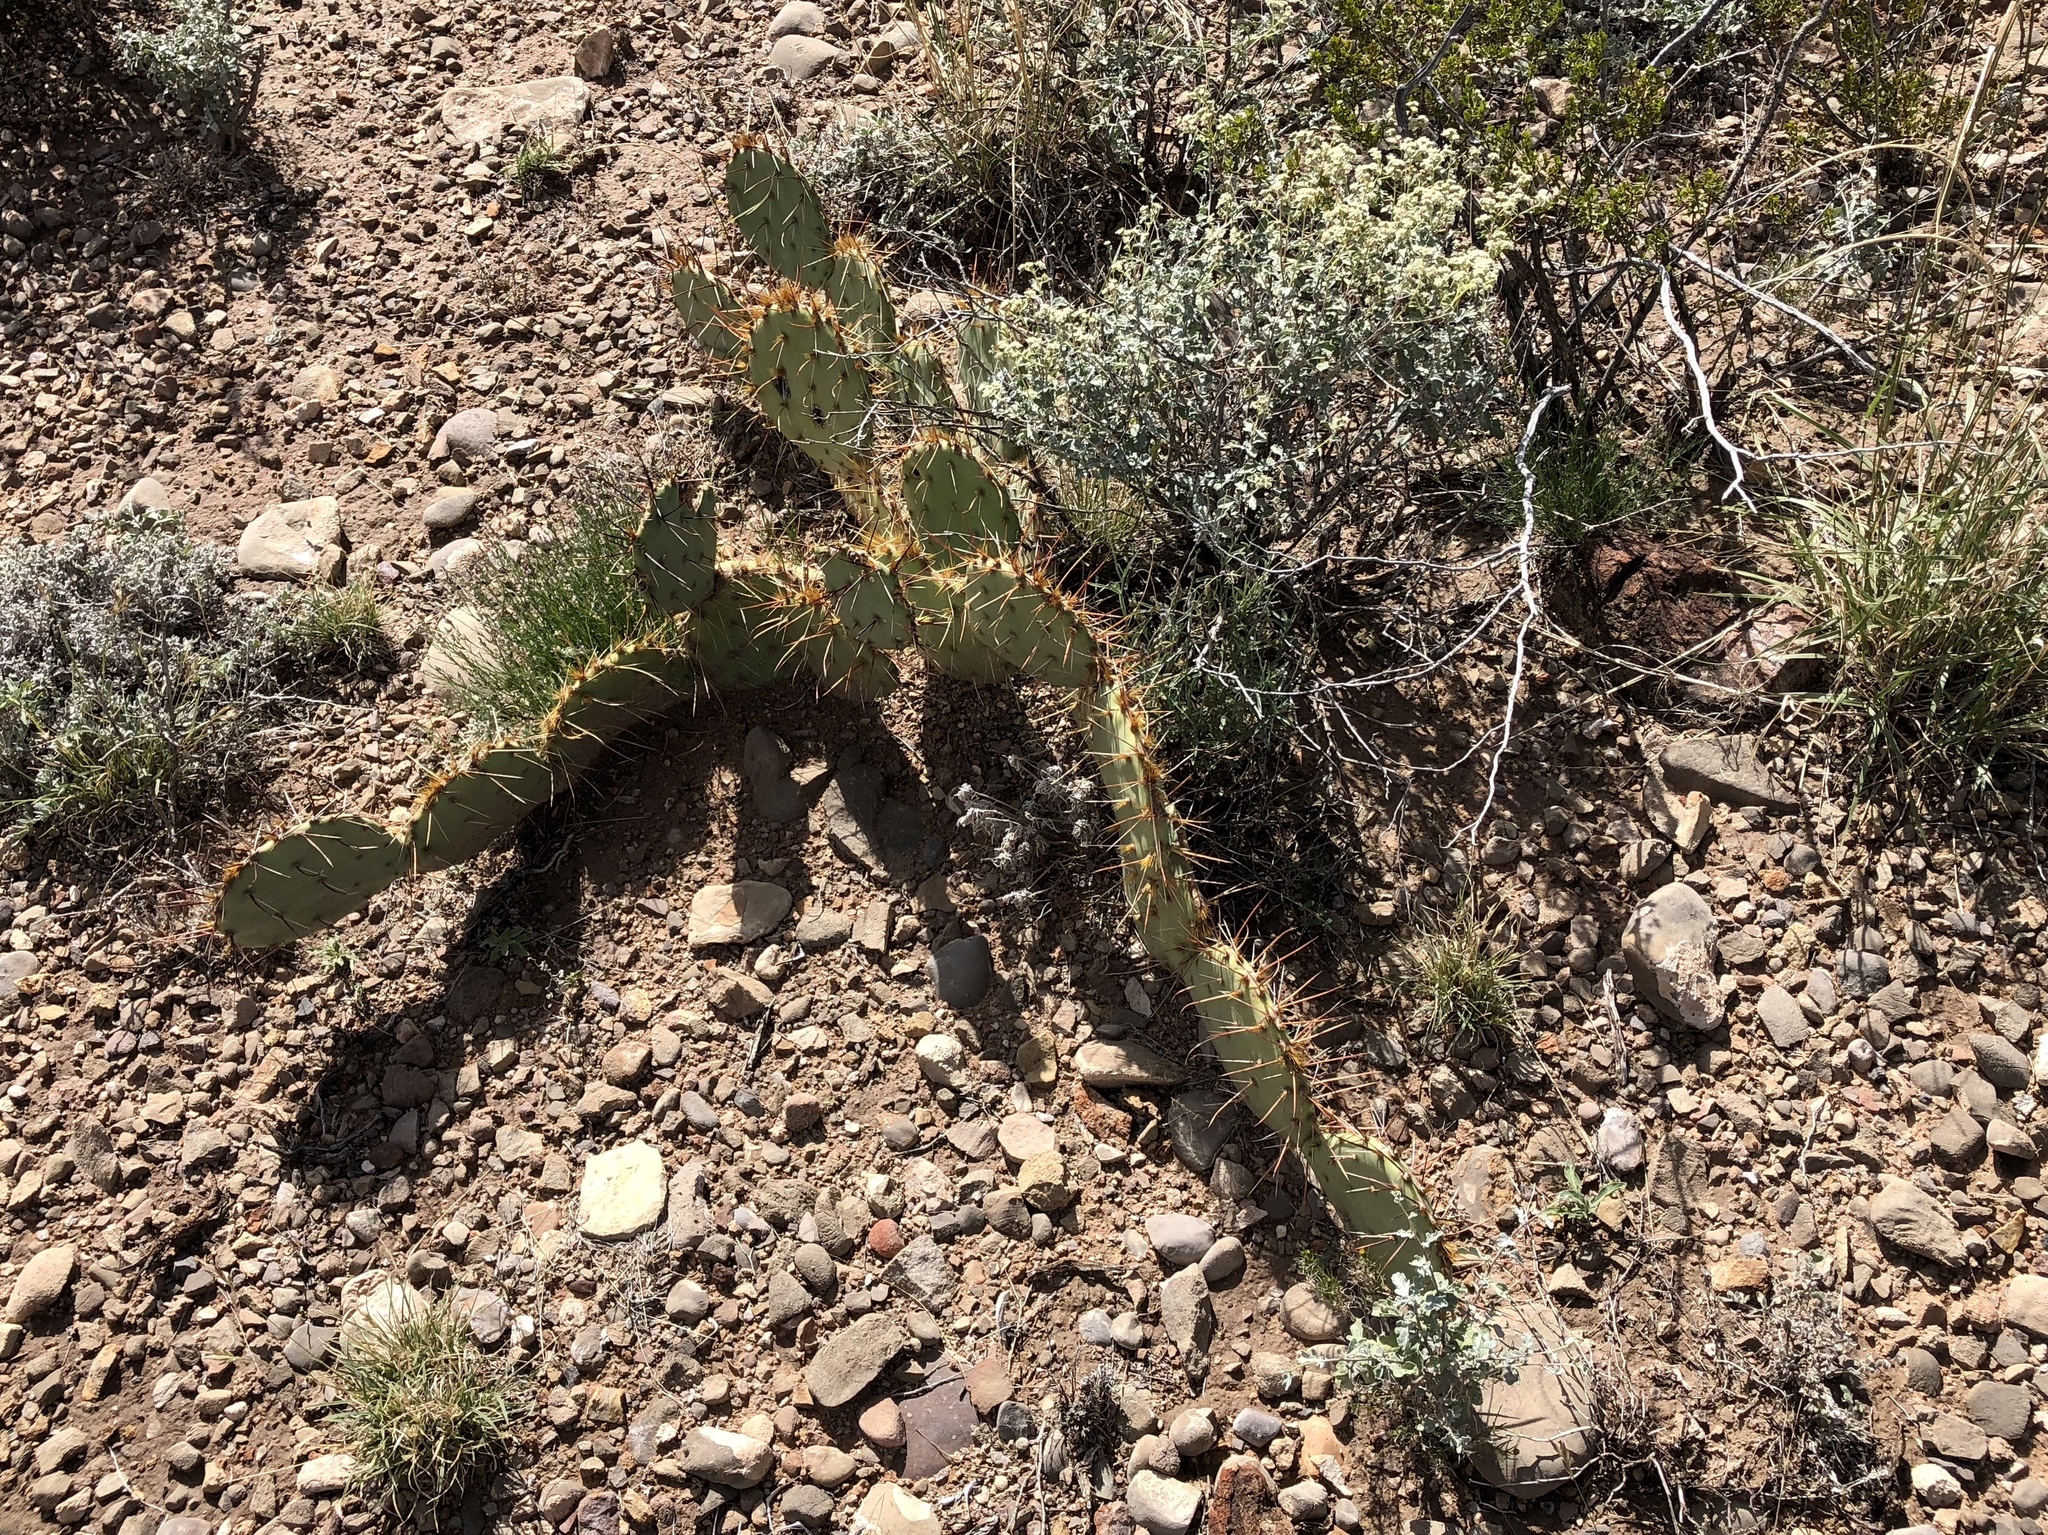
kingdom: Plantae
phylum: Tracheophyta
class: Magnoliopsida
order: Caryophyllales
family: Cactaceae
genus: Opuntia
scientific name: Opuntia engelmannii
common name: Cactus-apple
